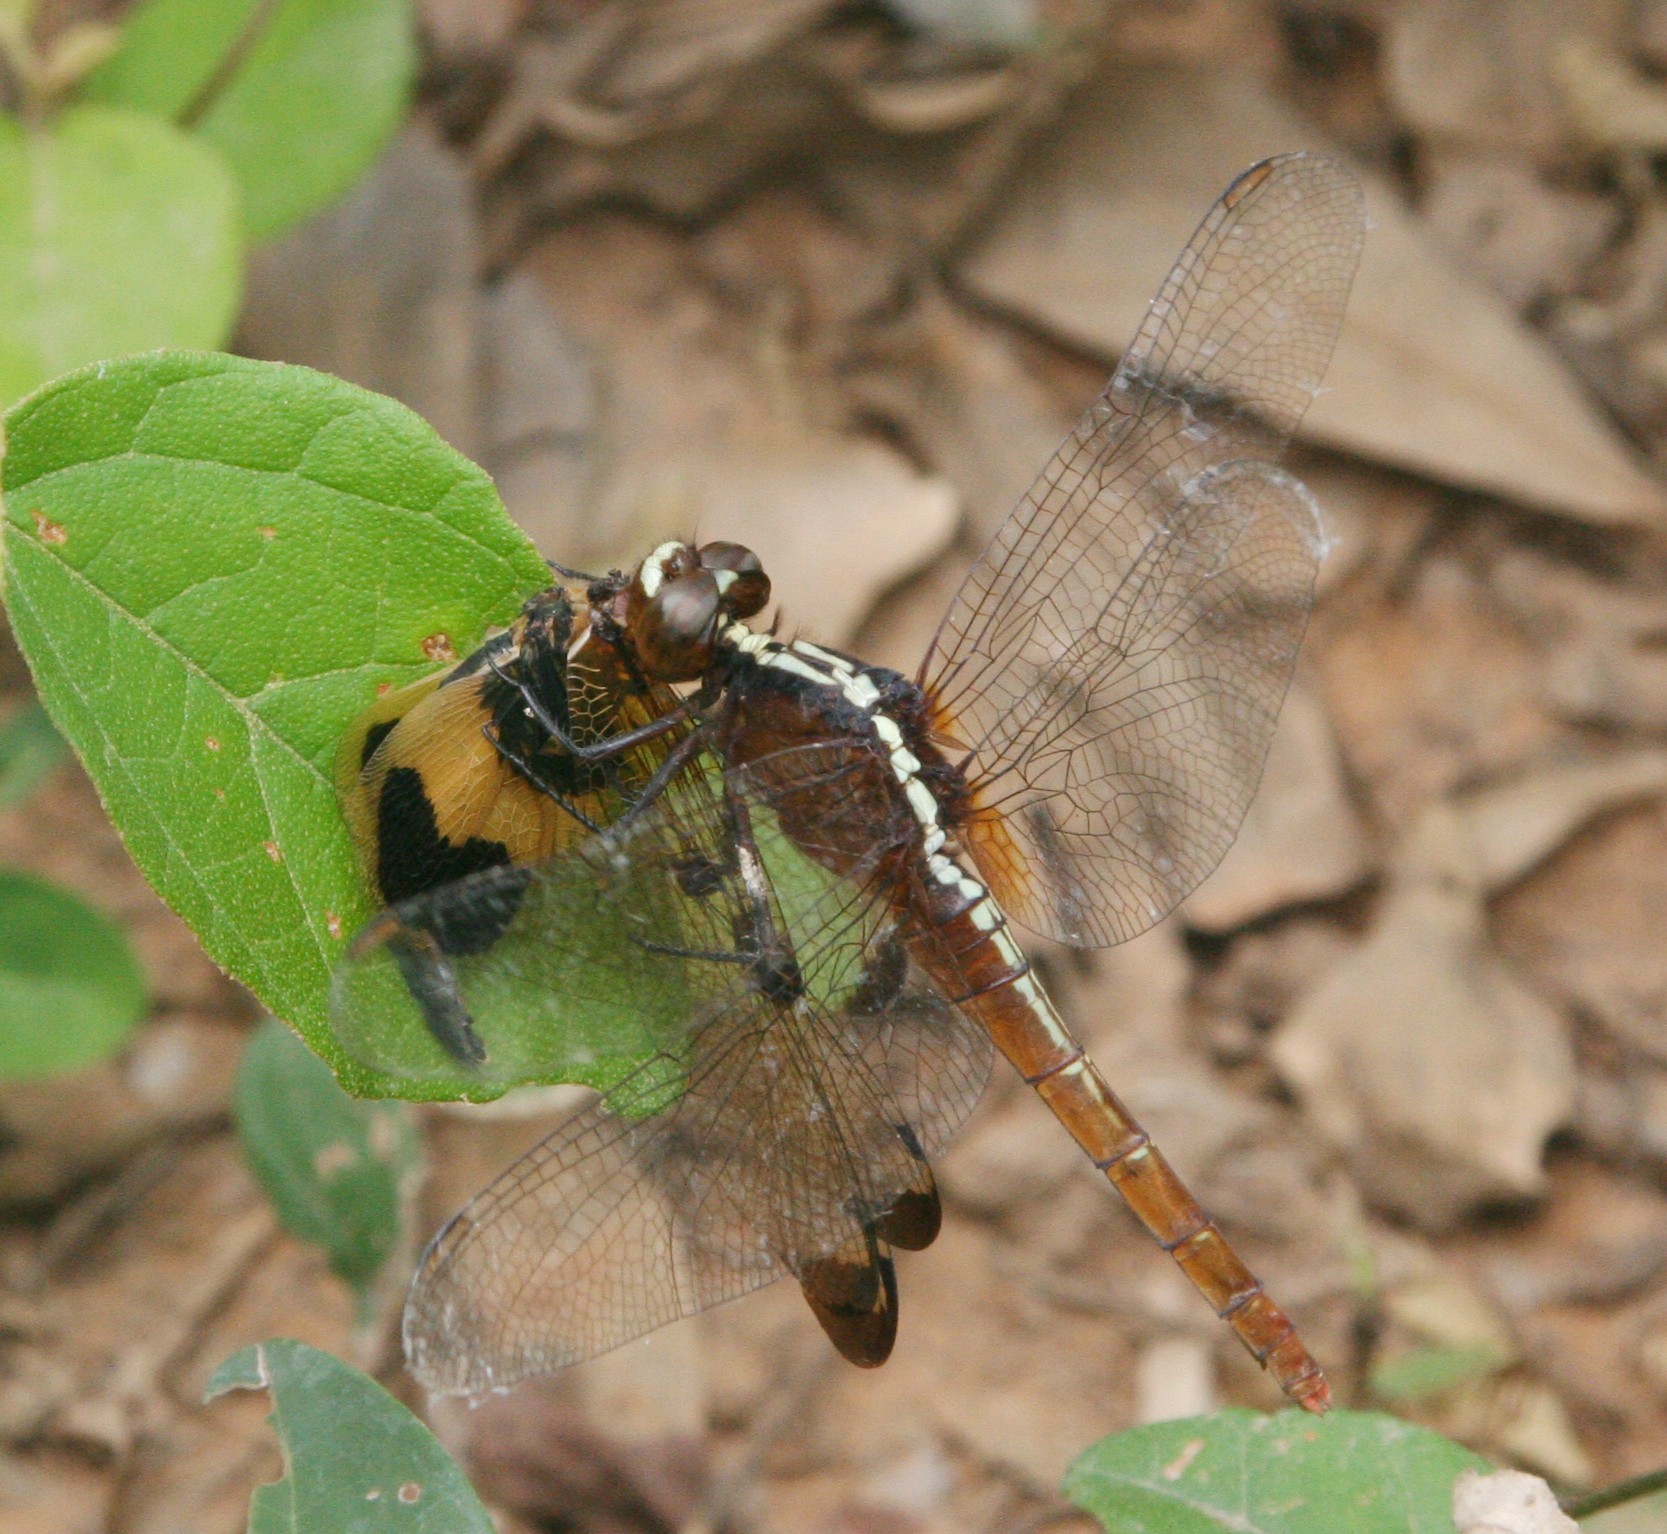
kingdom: Animalia
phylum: Arthropoda
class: Insecta
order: Odonata
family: Libellulidae
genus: Rhodothemis
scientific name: Rhodothemis rufa
